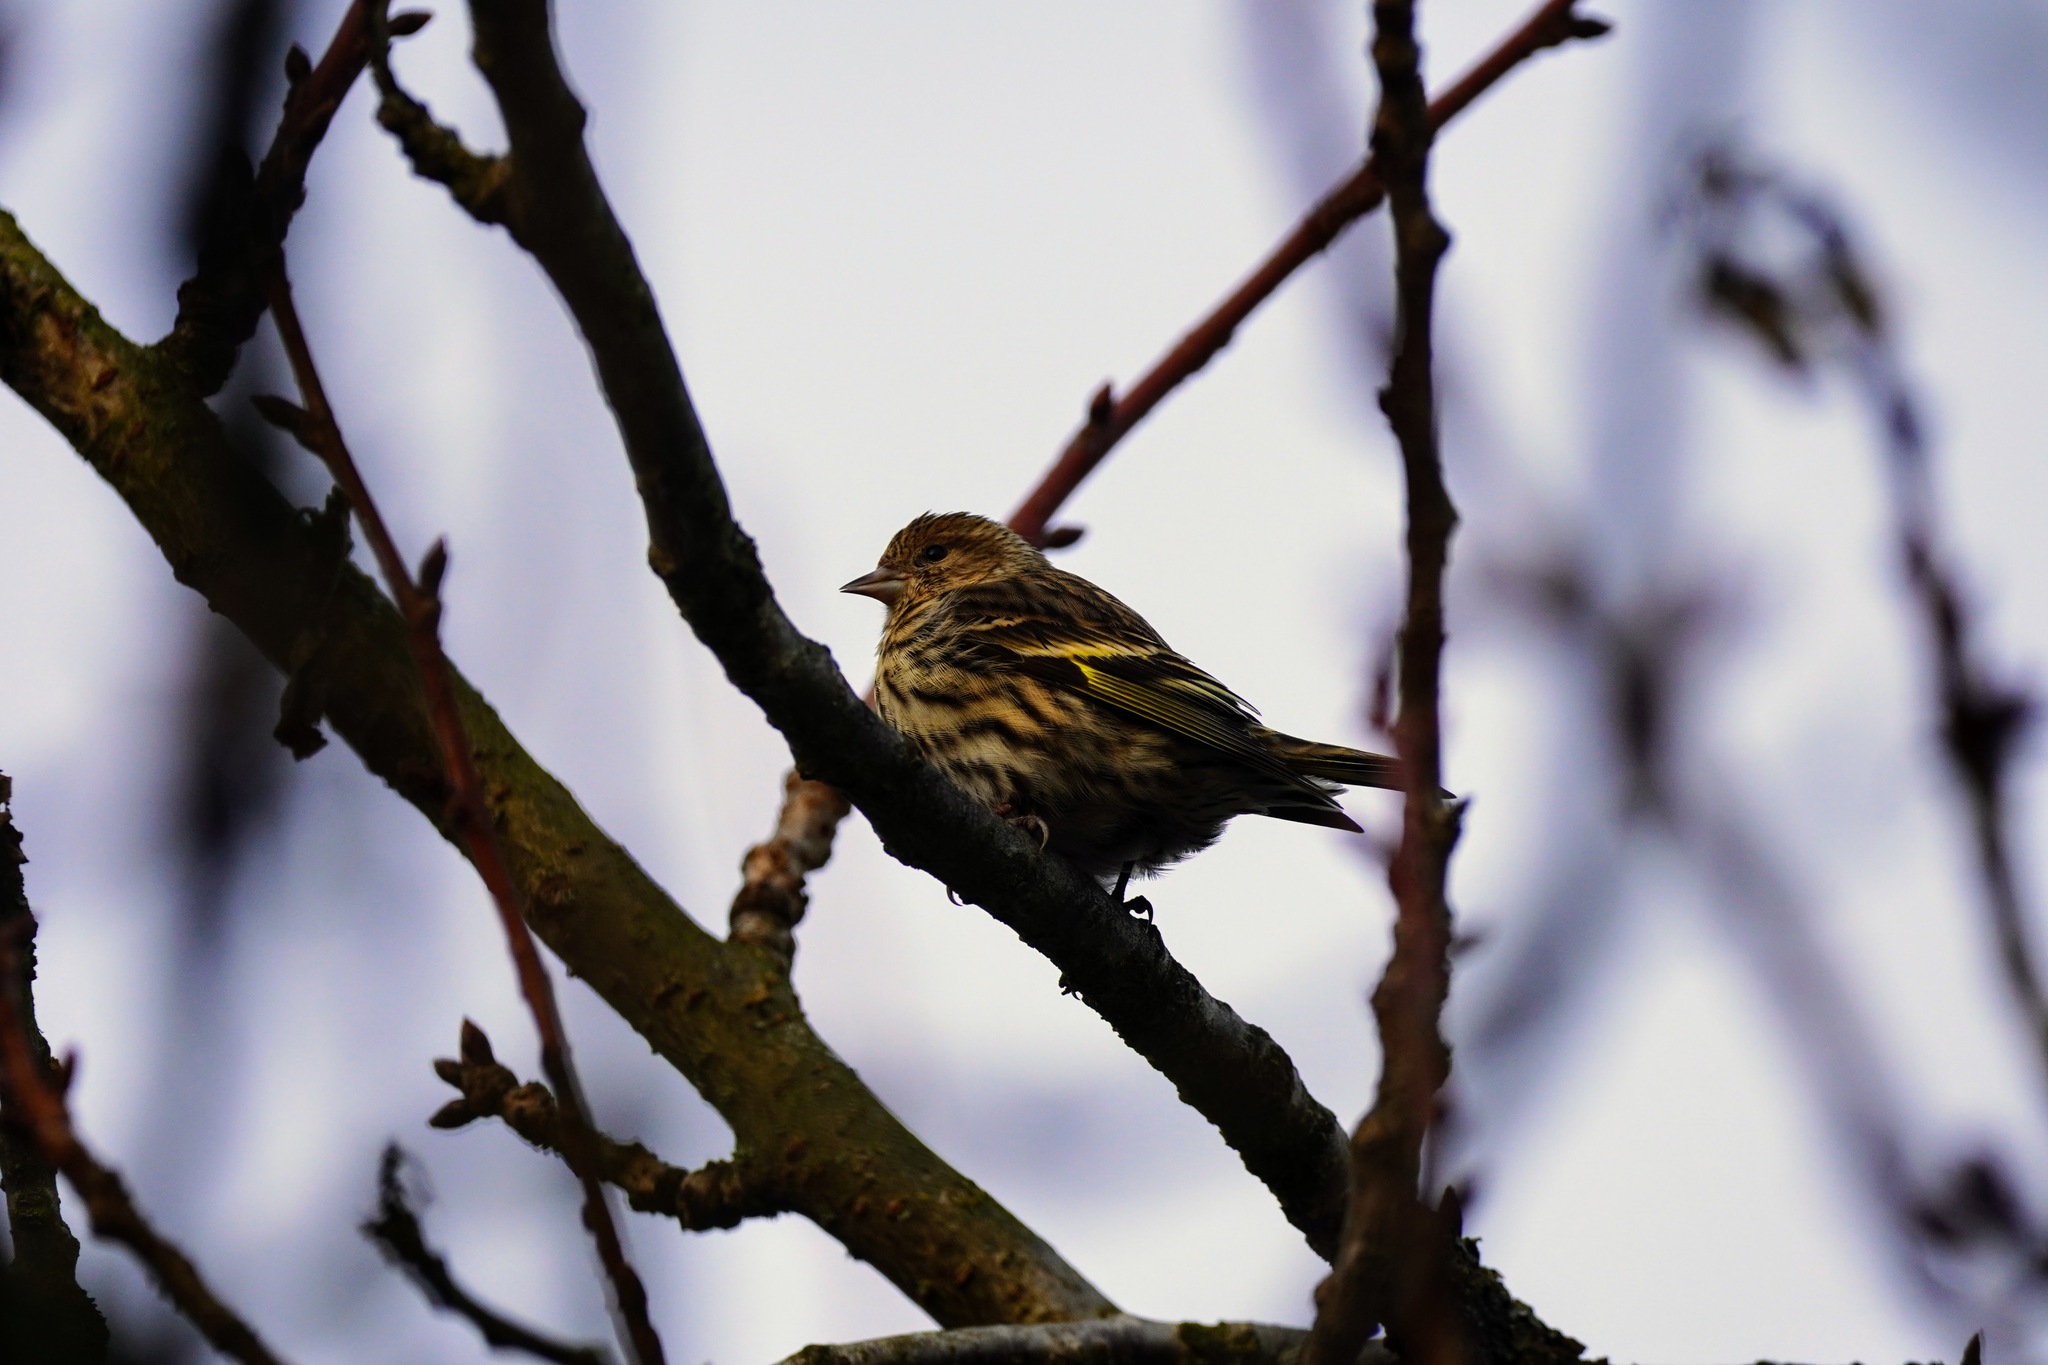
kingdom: Animalia
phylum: Chordata
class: Aves
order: Passeriformes
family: Fringillidae
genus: Spinus
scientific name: Spinus pinus
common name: Pine siskin
